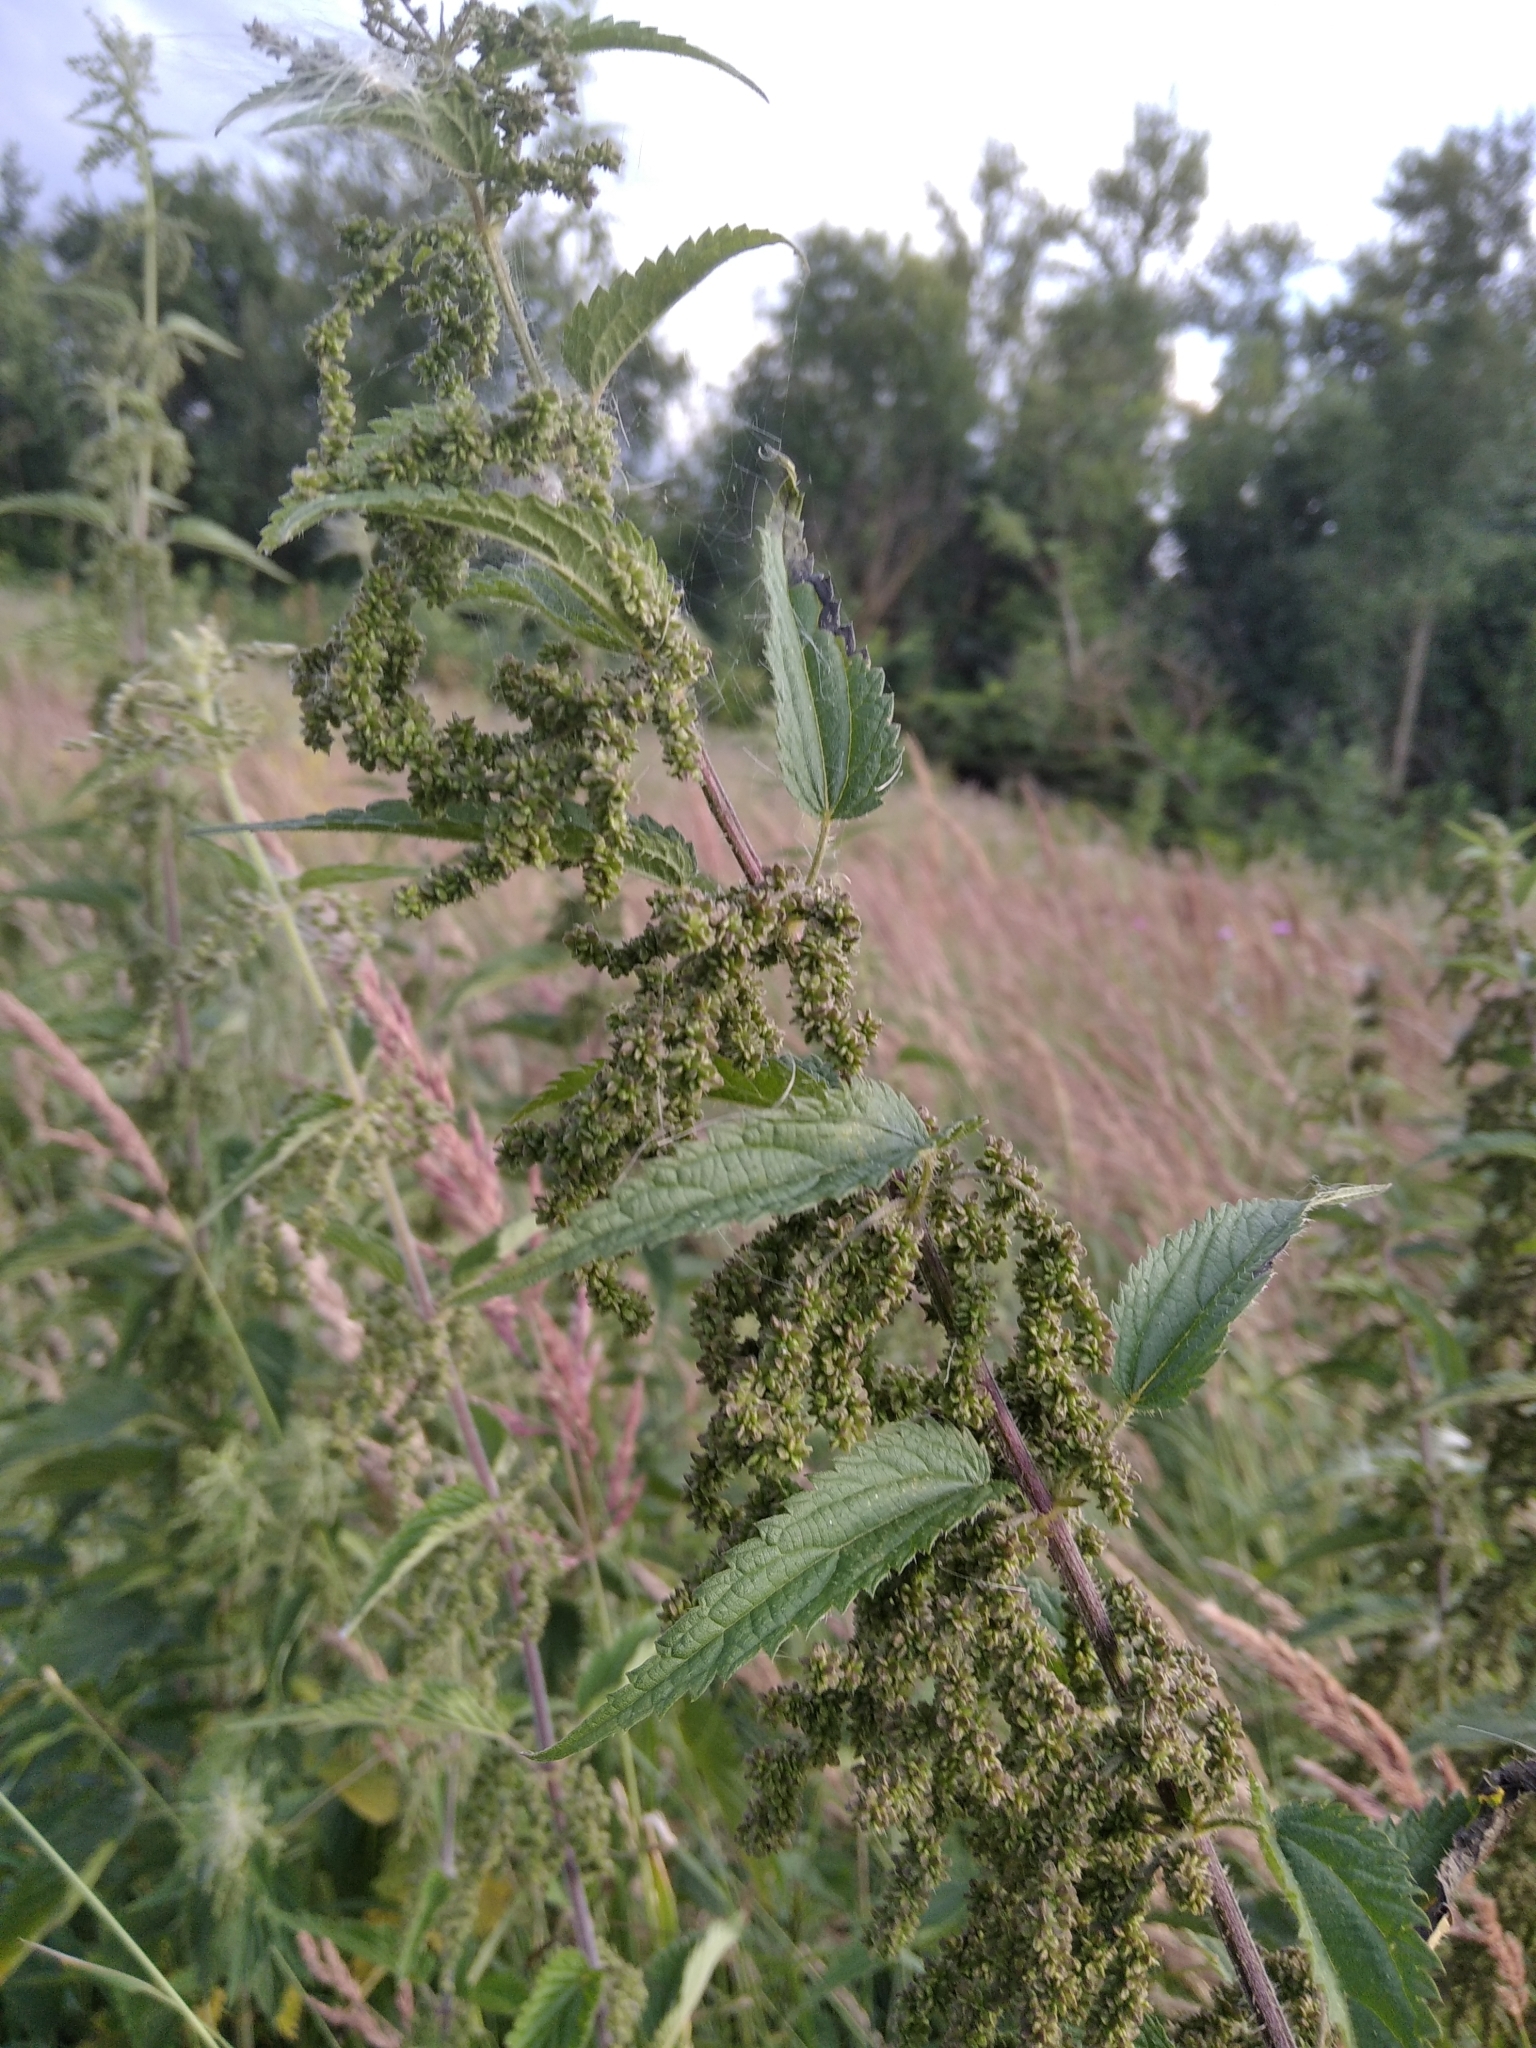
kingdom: Plantae
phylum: Tracheophyta
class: Magnoliopsida
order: Rosales
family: Urticaceae
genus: Urtica
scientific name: Urtica dioica
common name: Common nettle
